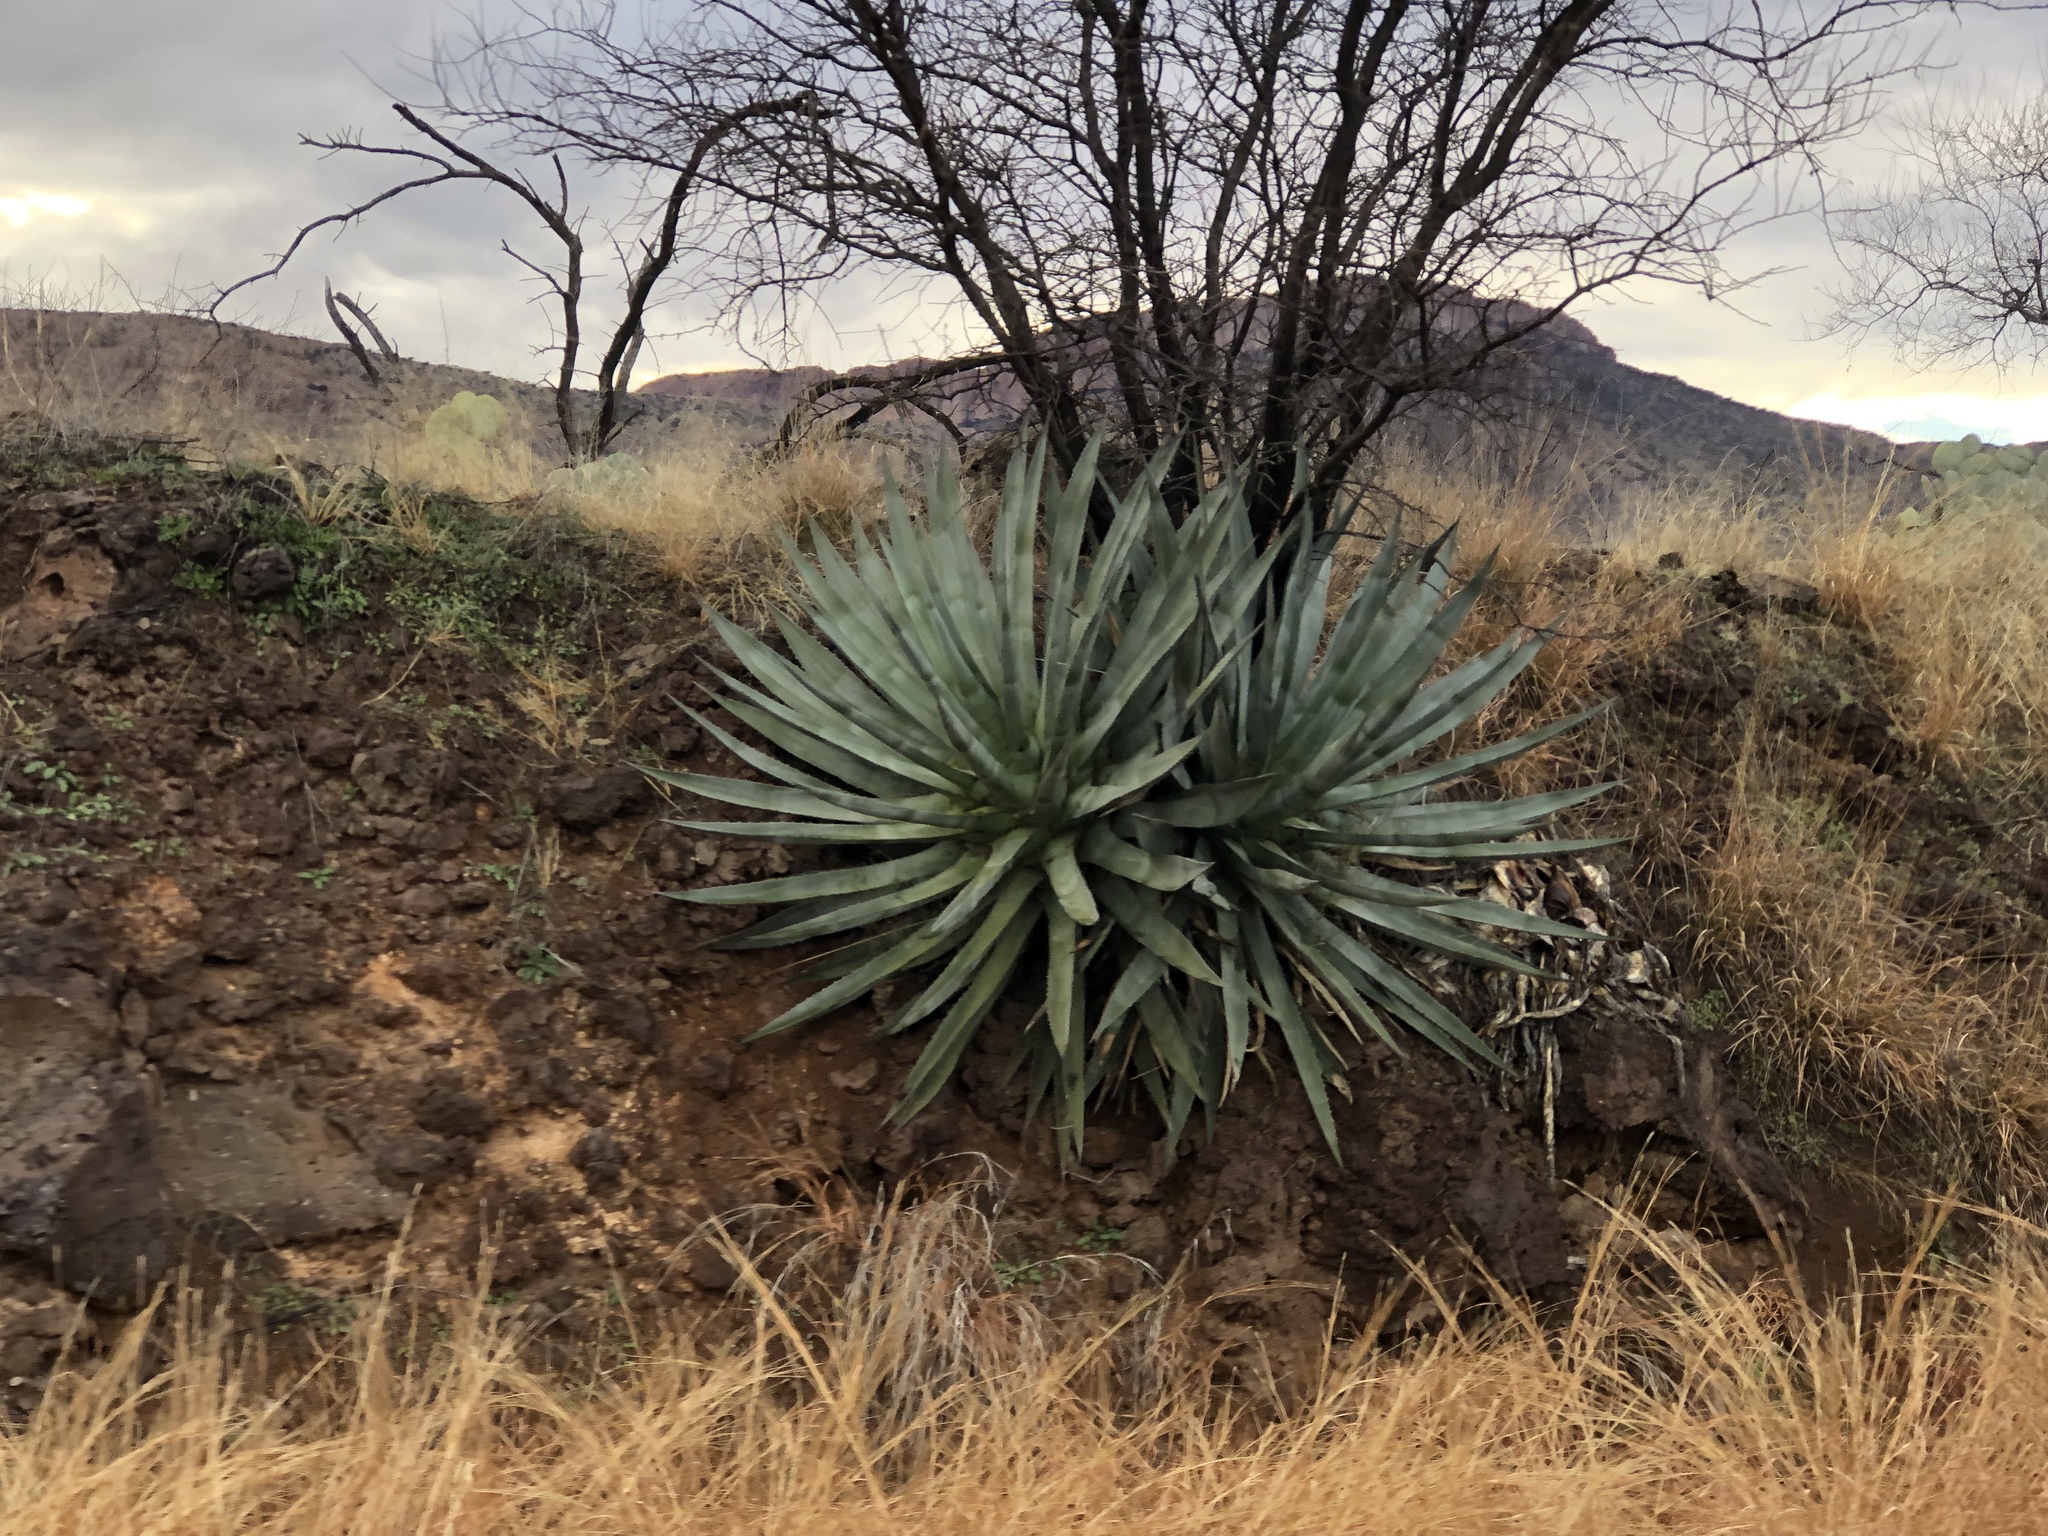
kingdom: Plantae
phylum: Tracheophyta
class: Liliopsida
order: Asparagales
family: Asparagaceae
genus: Agave
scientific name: Agave palmeri
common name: Palmer agave
